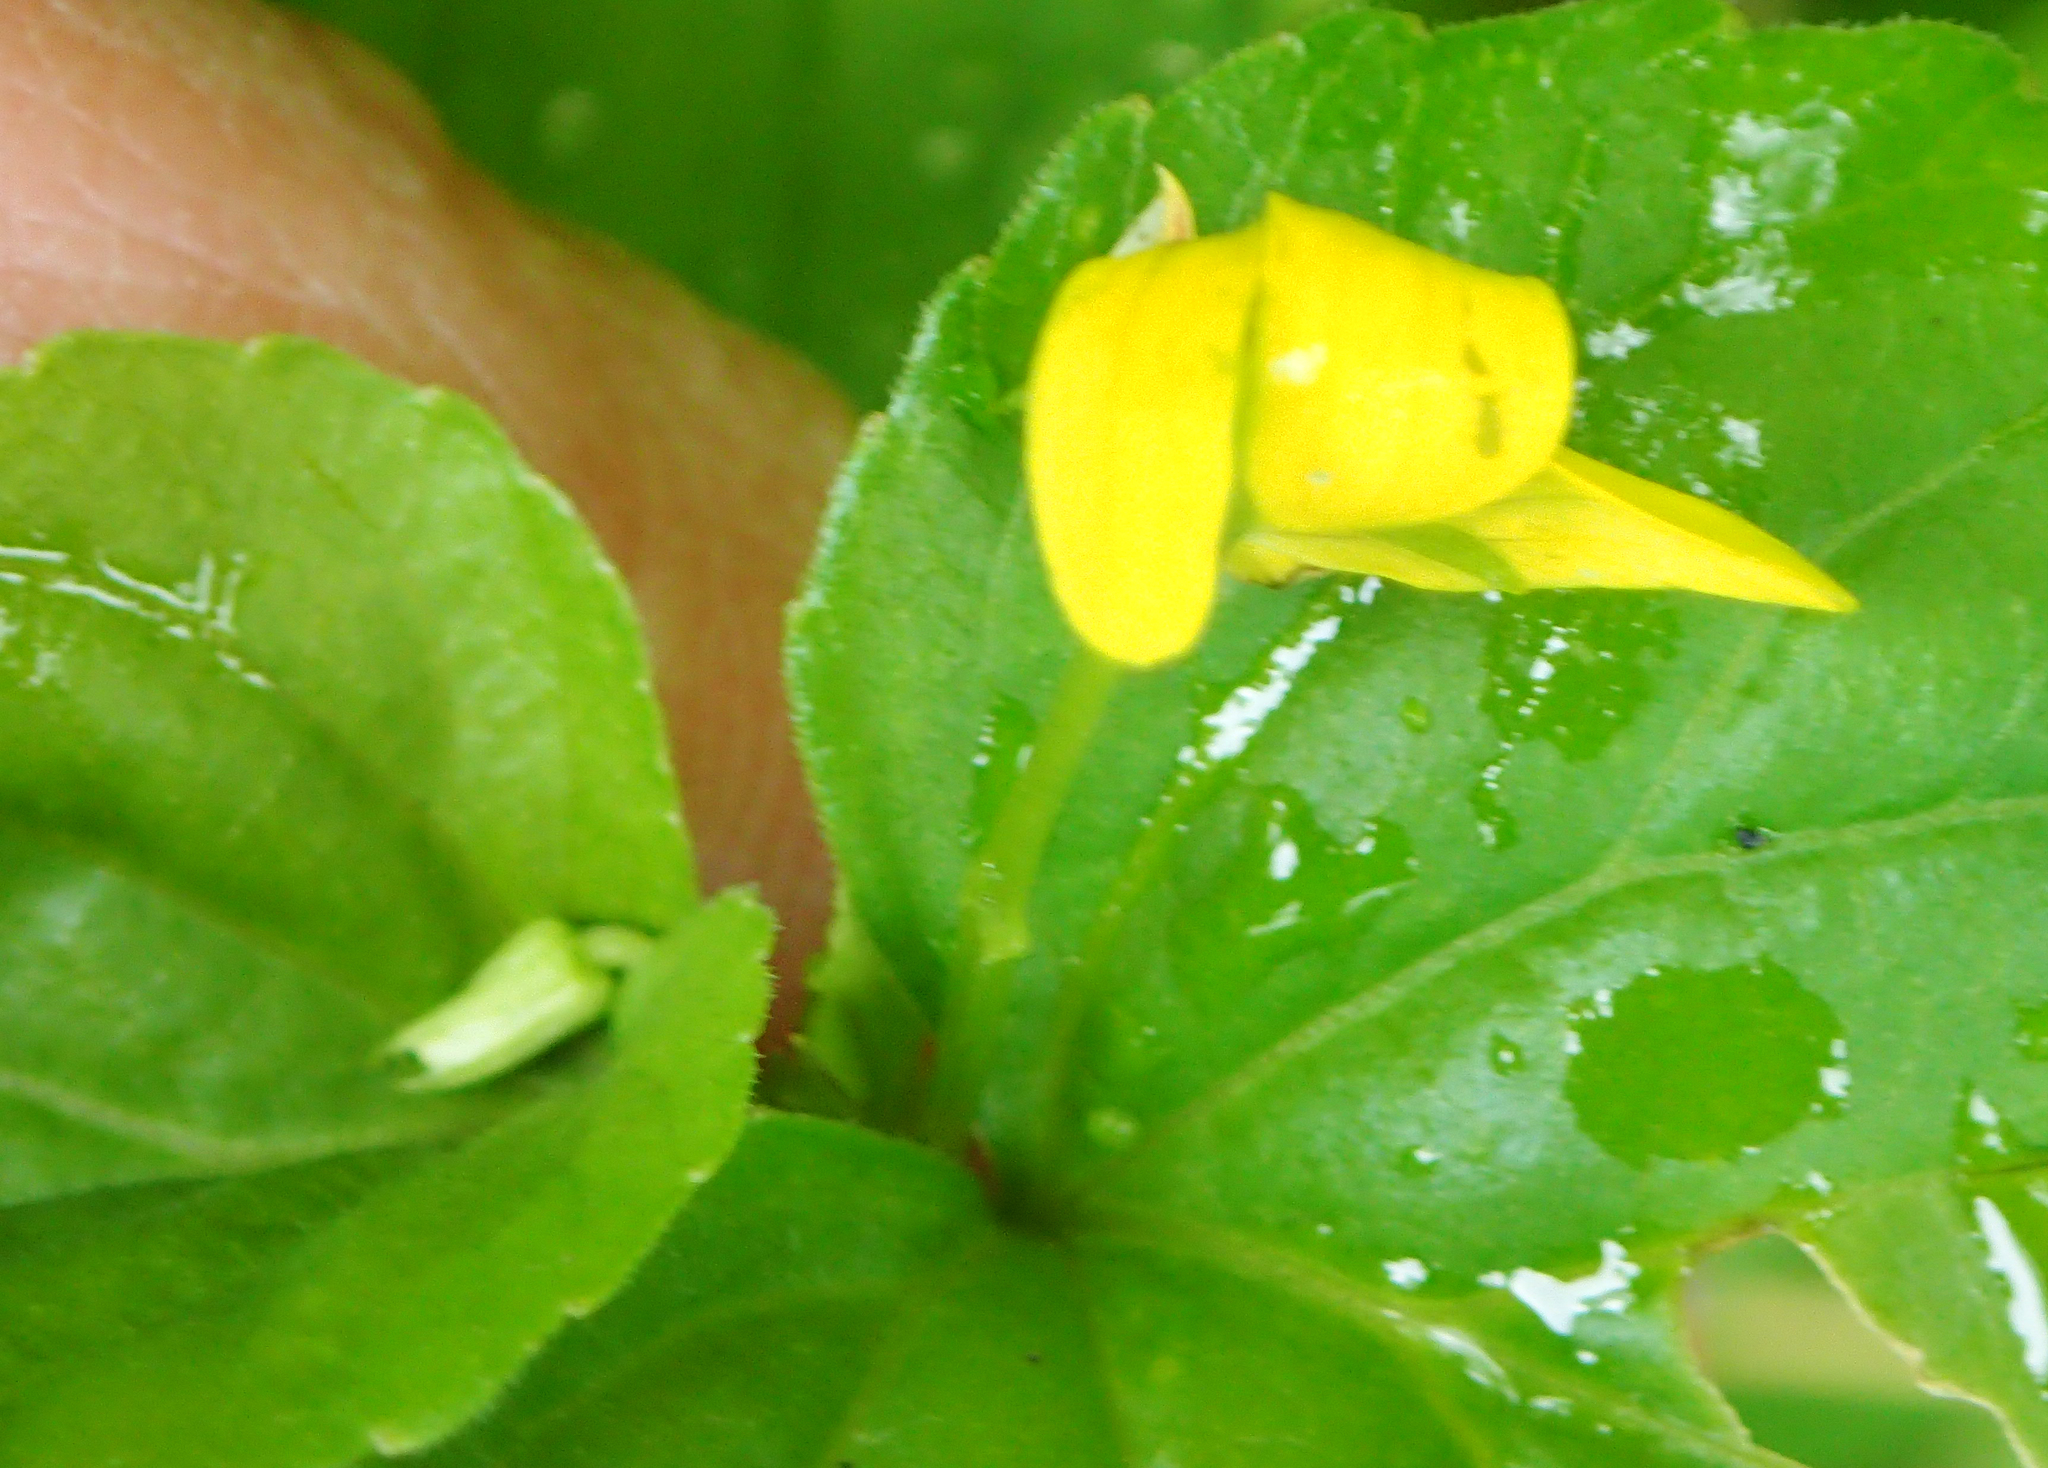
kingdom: Plantae
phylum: Tracheophyta
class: Magnoliopsida
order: Malpighiales
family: Violaceae
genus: Viola
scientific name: Viola glabella
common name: Stream violet
